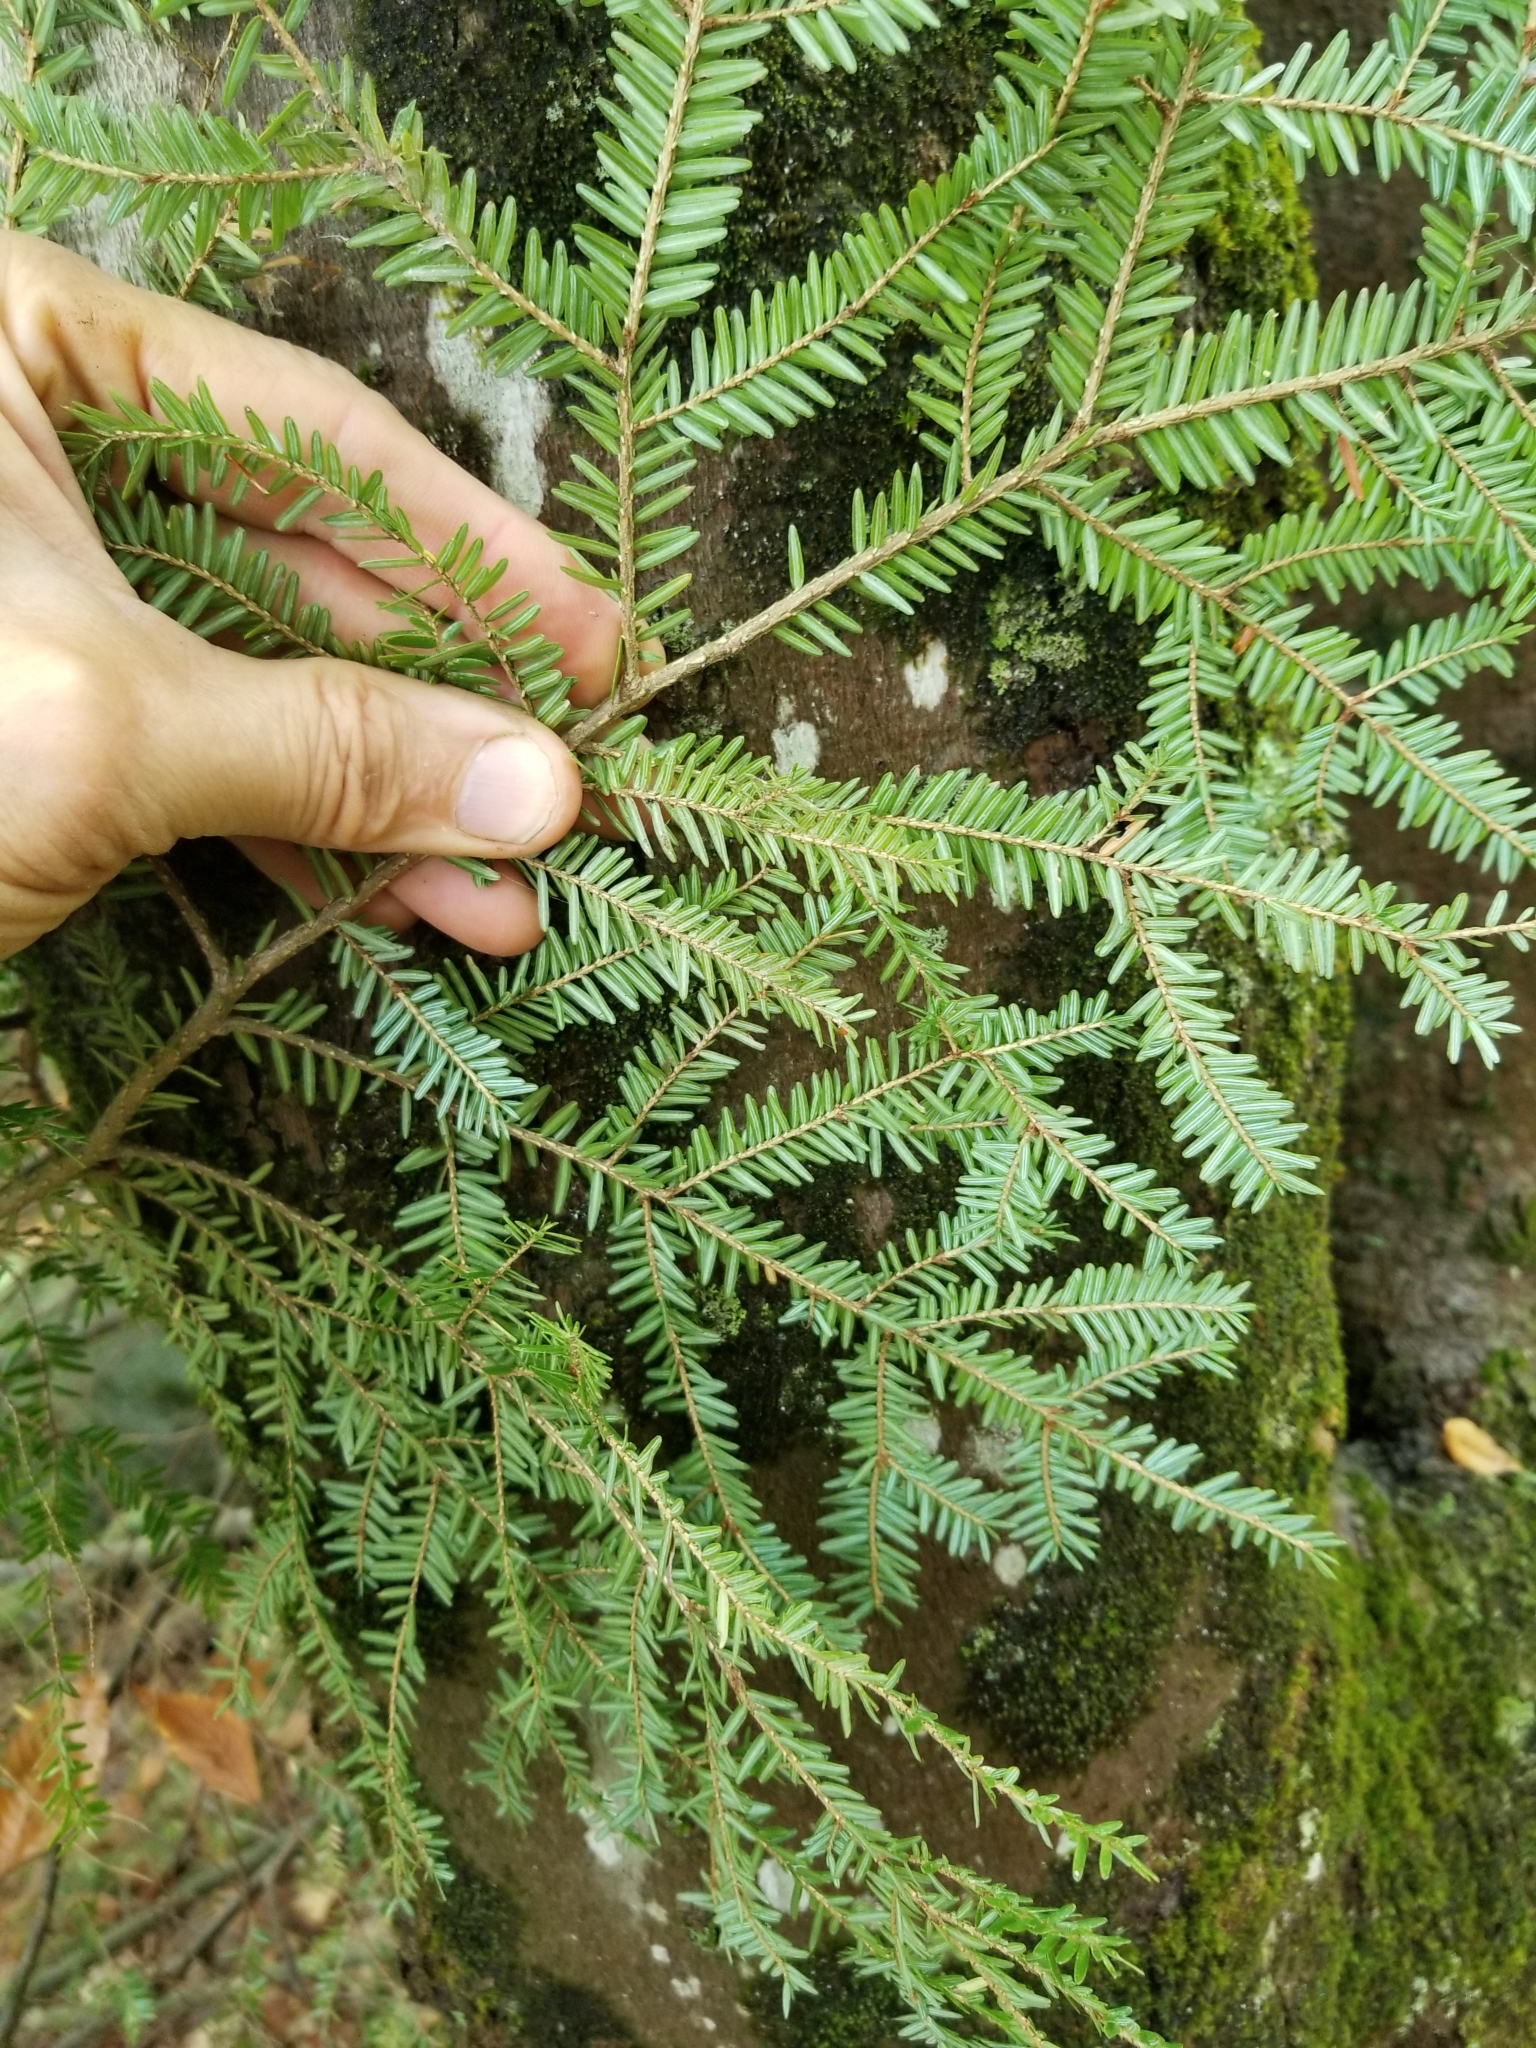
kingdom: Plantae
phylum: Tracheophyta
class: Pinopsida
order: Pinales
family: Pinaceae
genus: Tsuga
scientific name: Tsuga canadensis
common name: Eastern hemlock
